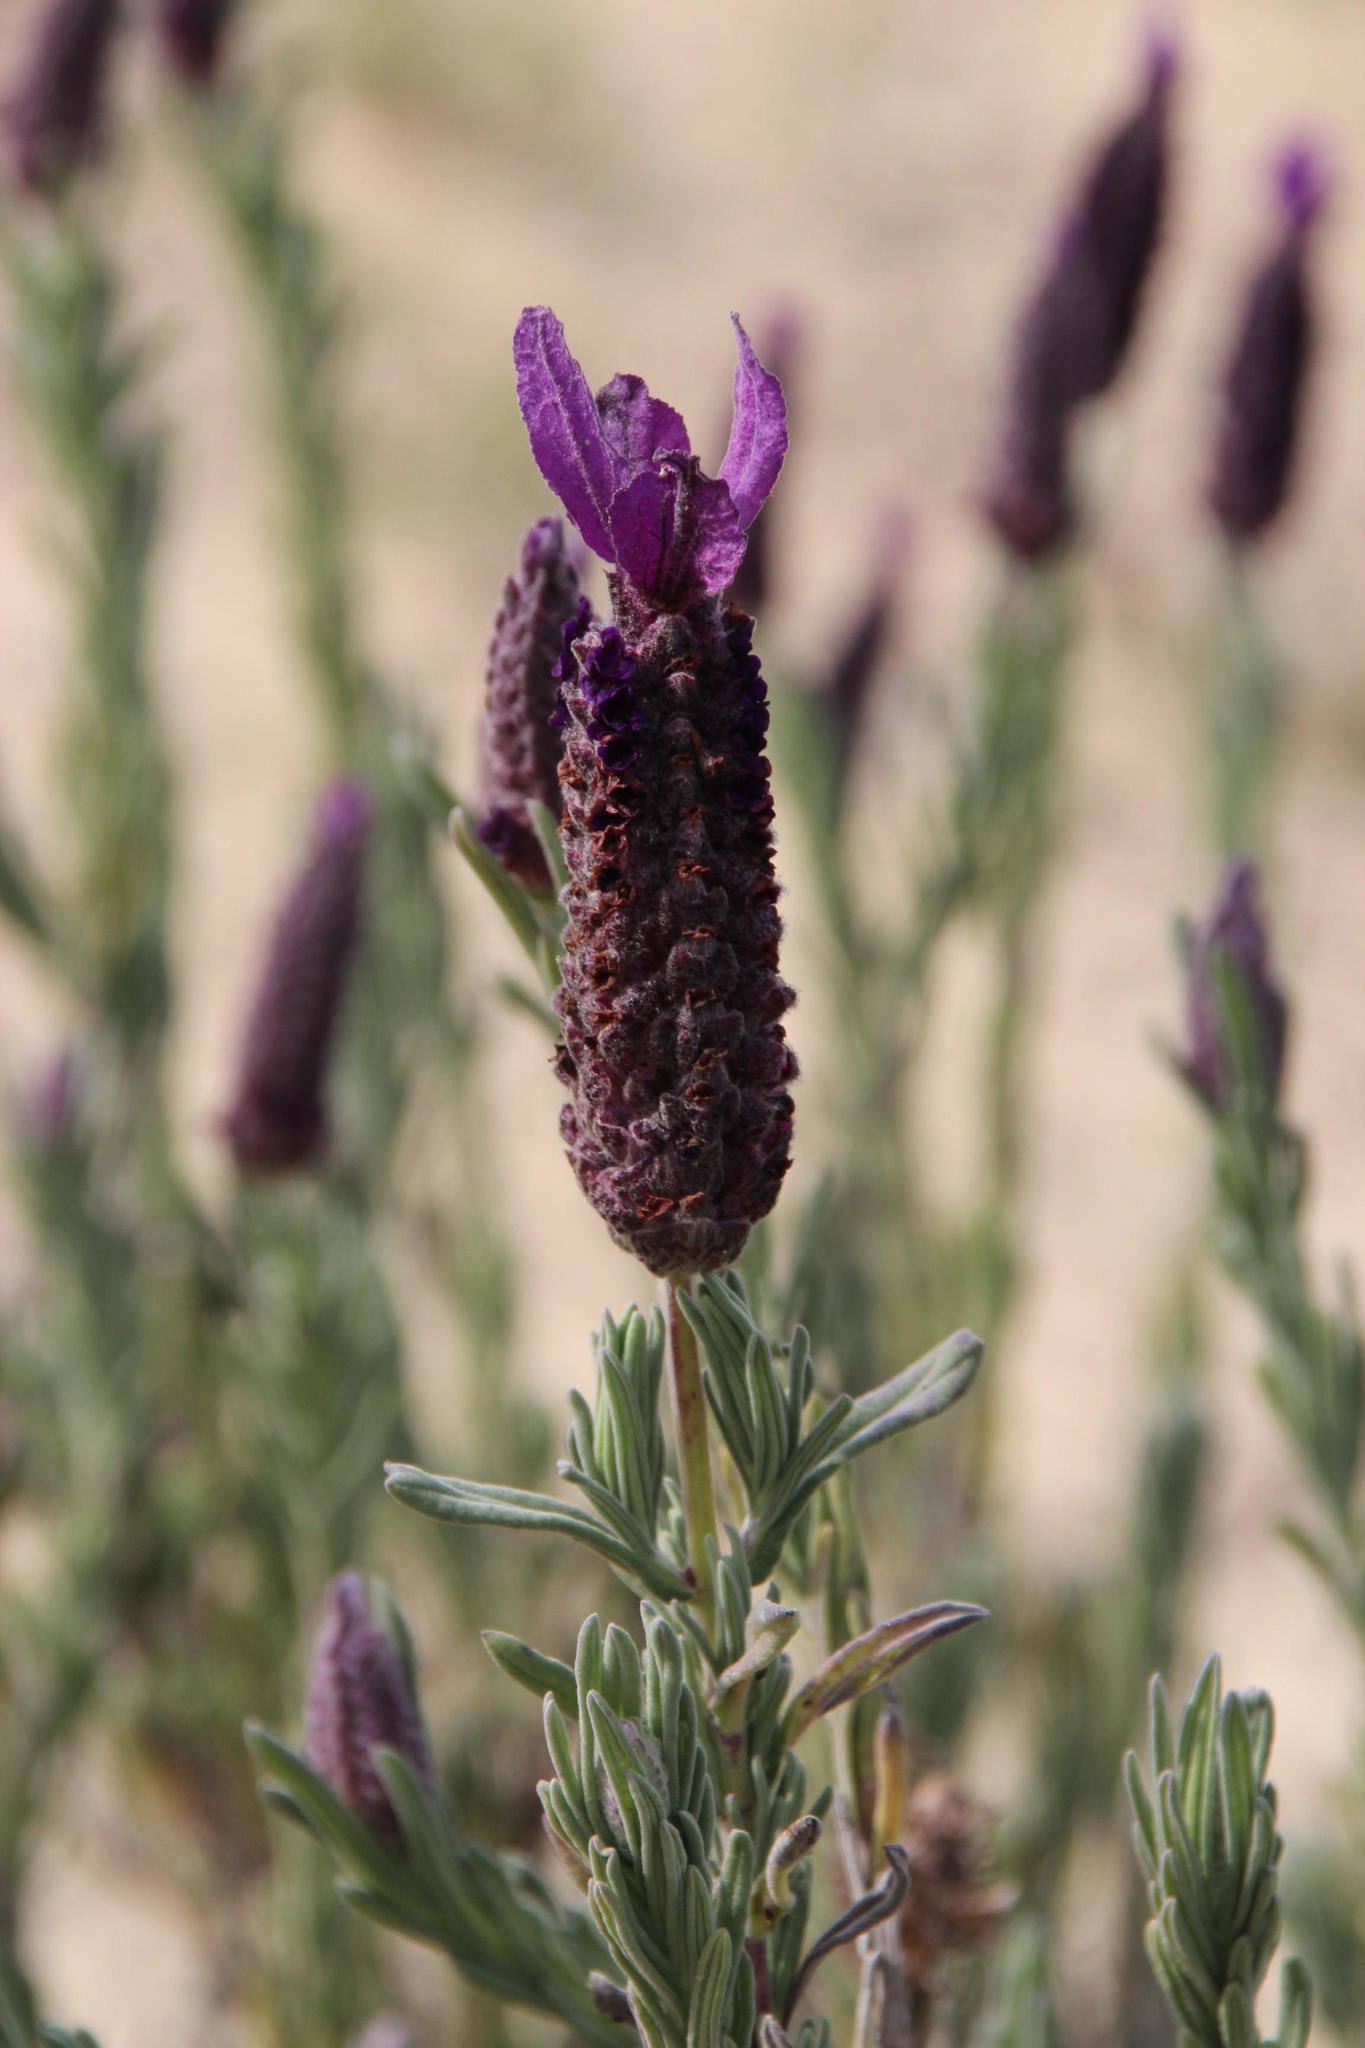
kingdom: Plantae
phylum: Tracheophyta
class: Magnoliopsida
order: Lamiales
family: Lamiaceae
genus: Lavandula
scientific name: Lavandula stoechas
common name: French lavender
